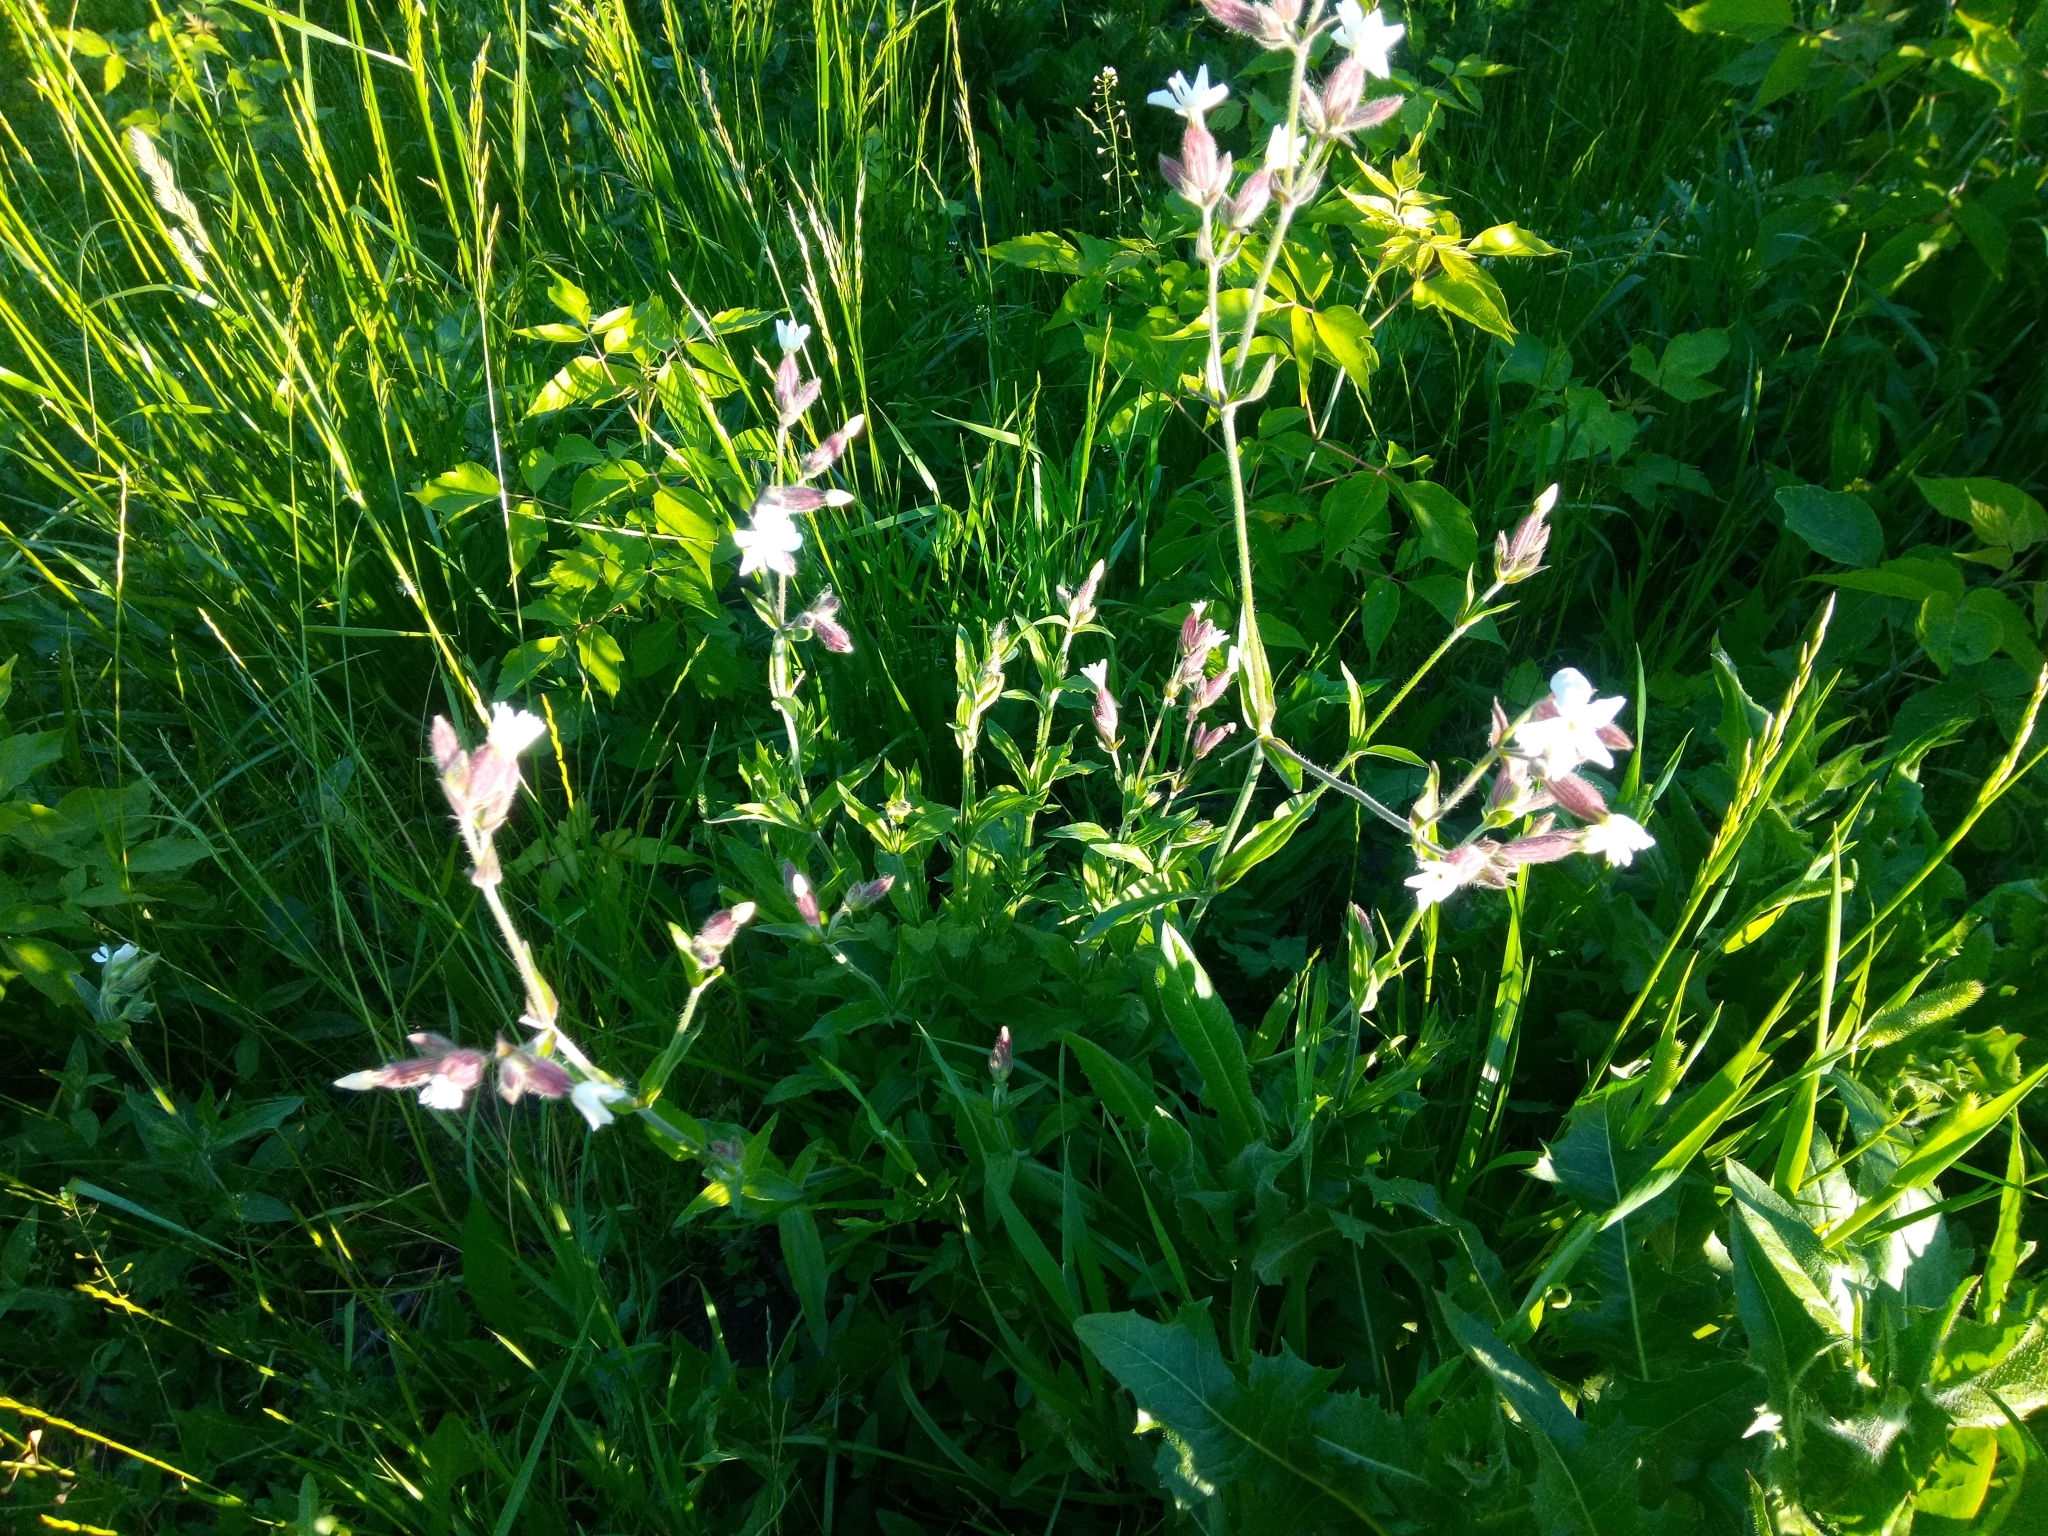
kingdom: Plantae
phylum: Tracheophyta
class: Magnoliopsida
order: Caryophyllales
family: Caryophyllaceae
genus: Silene
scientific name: Silene latifolia
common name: White campion
